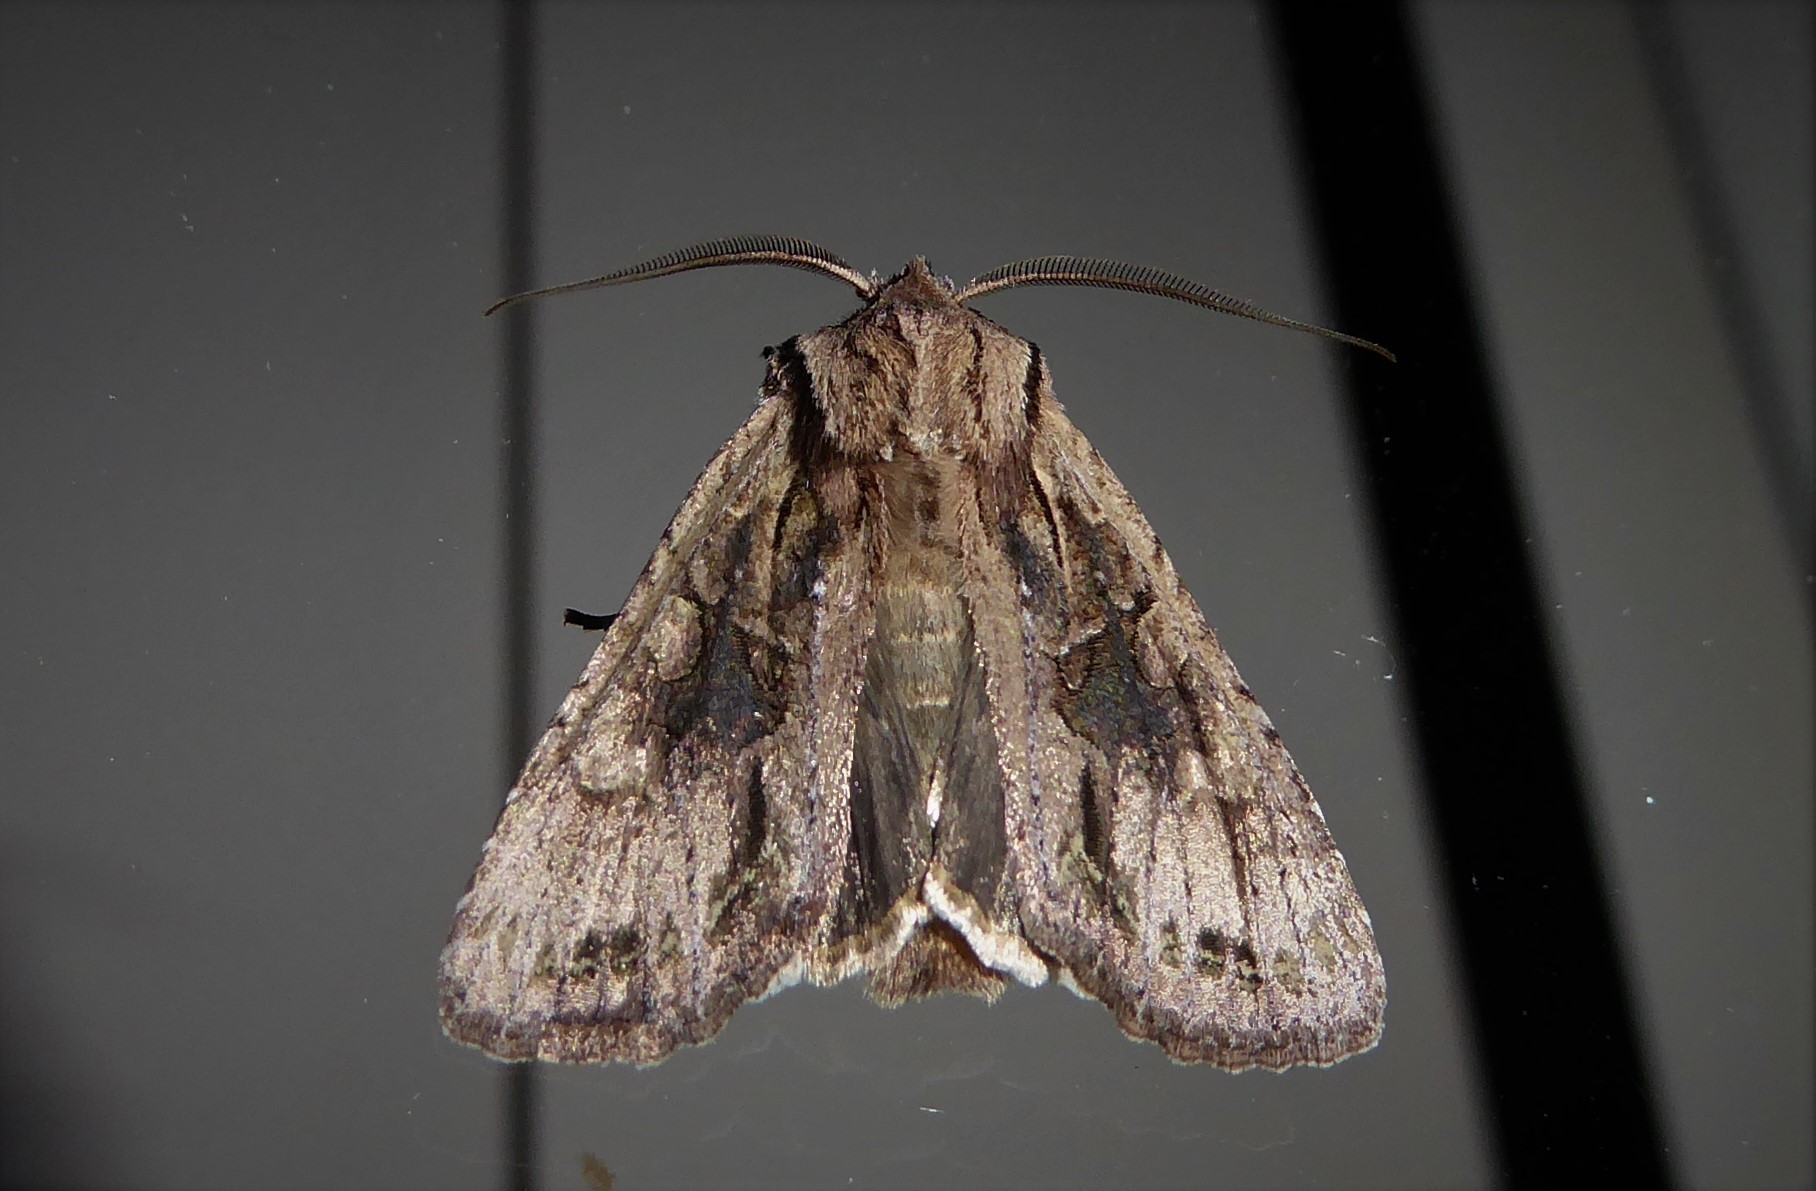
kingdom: Animalia
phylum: Arthropoda
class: Insecta
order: Lepidoptera
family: Noctuidae
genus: Ichneutica
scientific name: Ichneutica mutans
